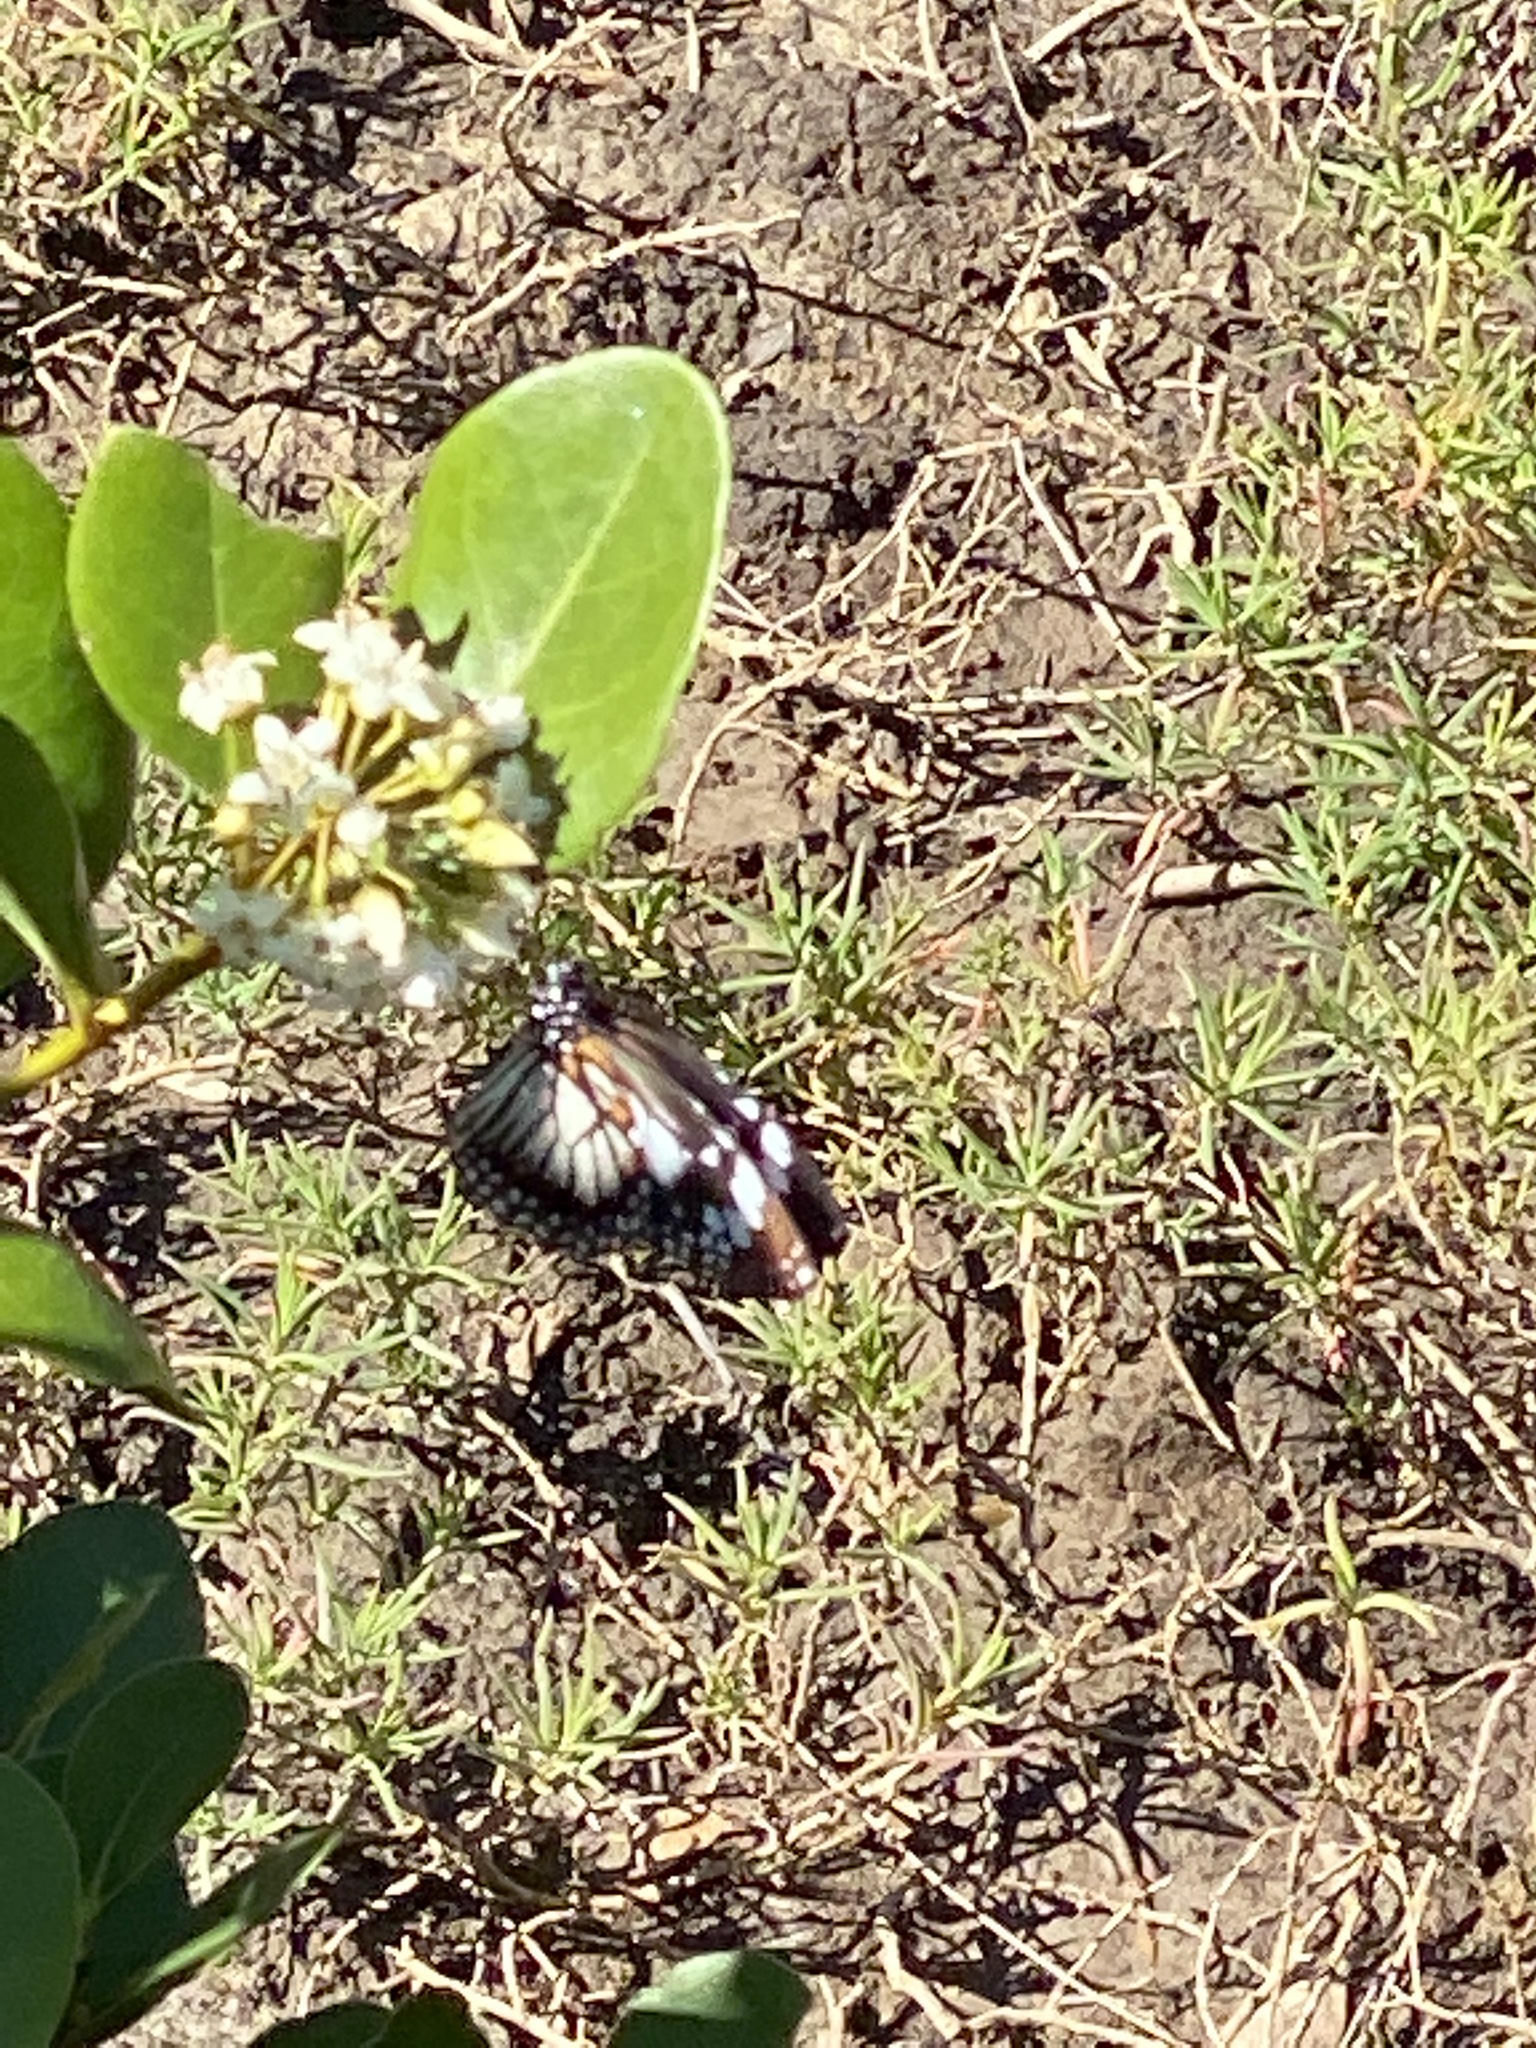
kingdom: Animalia
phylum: Arthropoda
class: Insecta
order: Lepidoptera
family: Nymphalidae
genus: Danaus
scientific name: Danaus affinis
